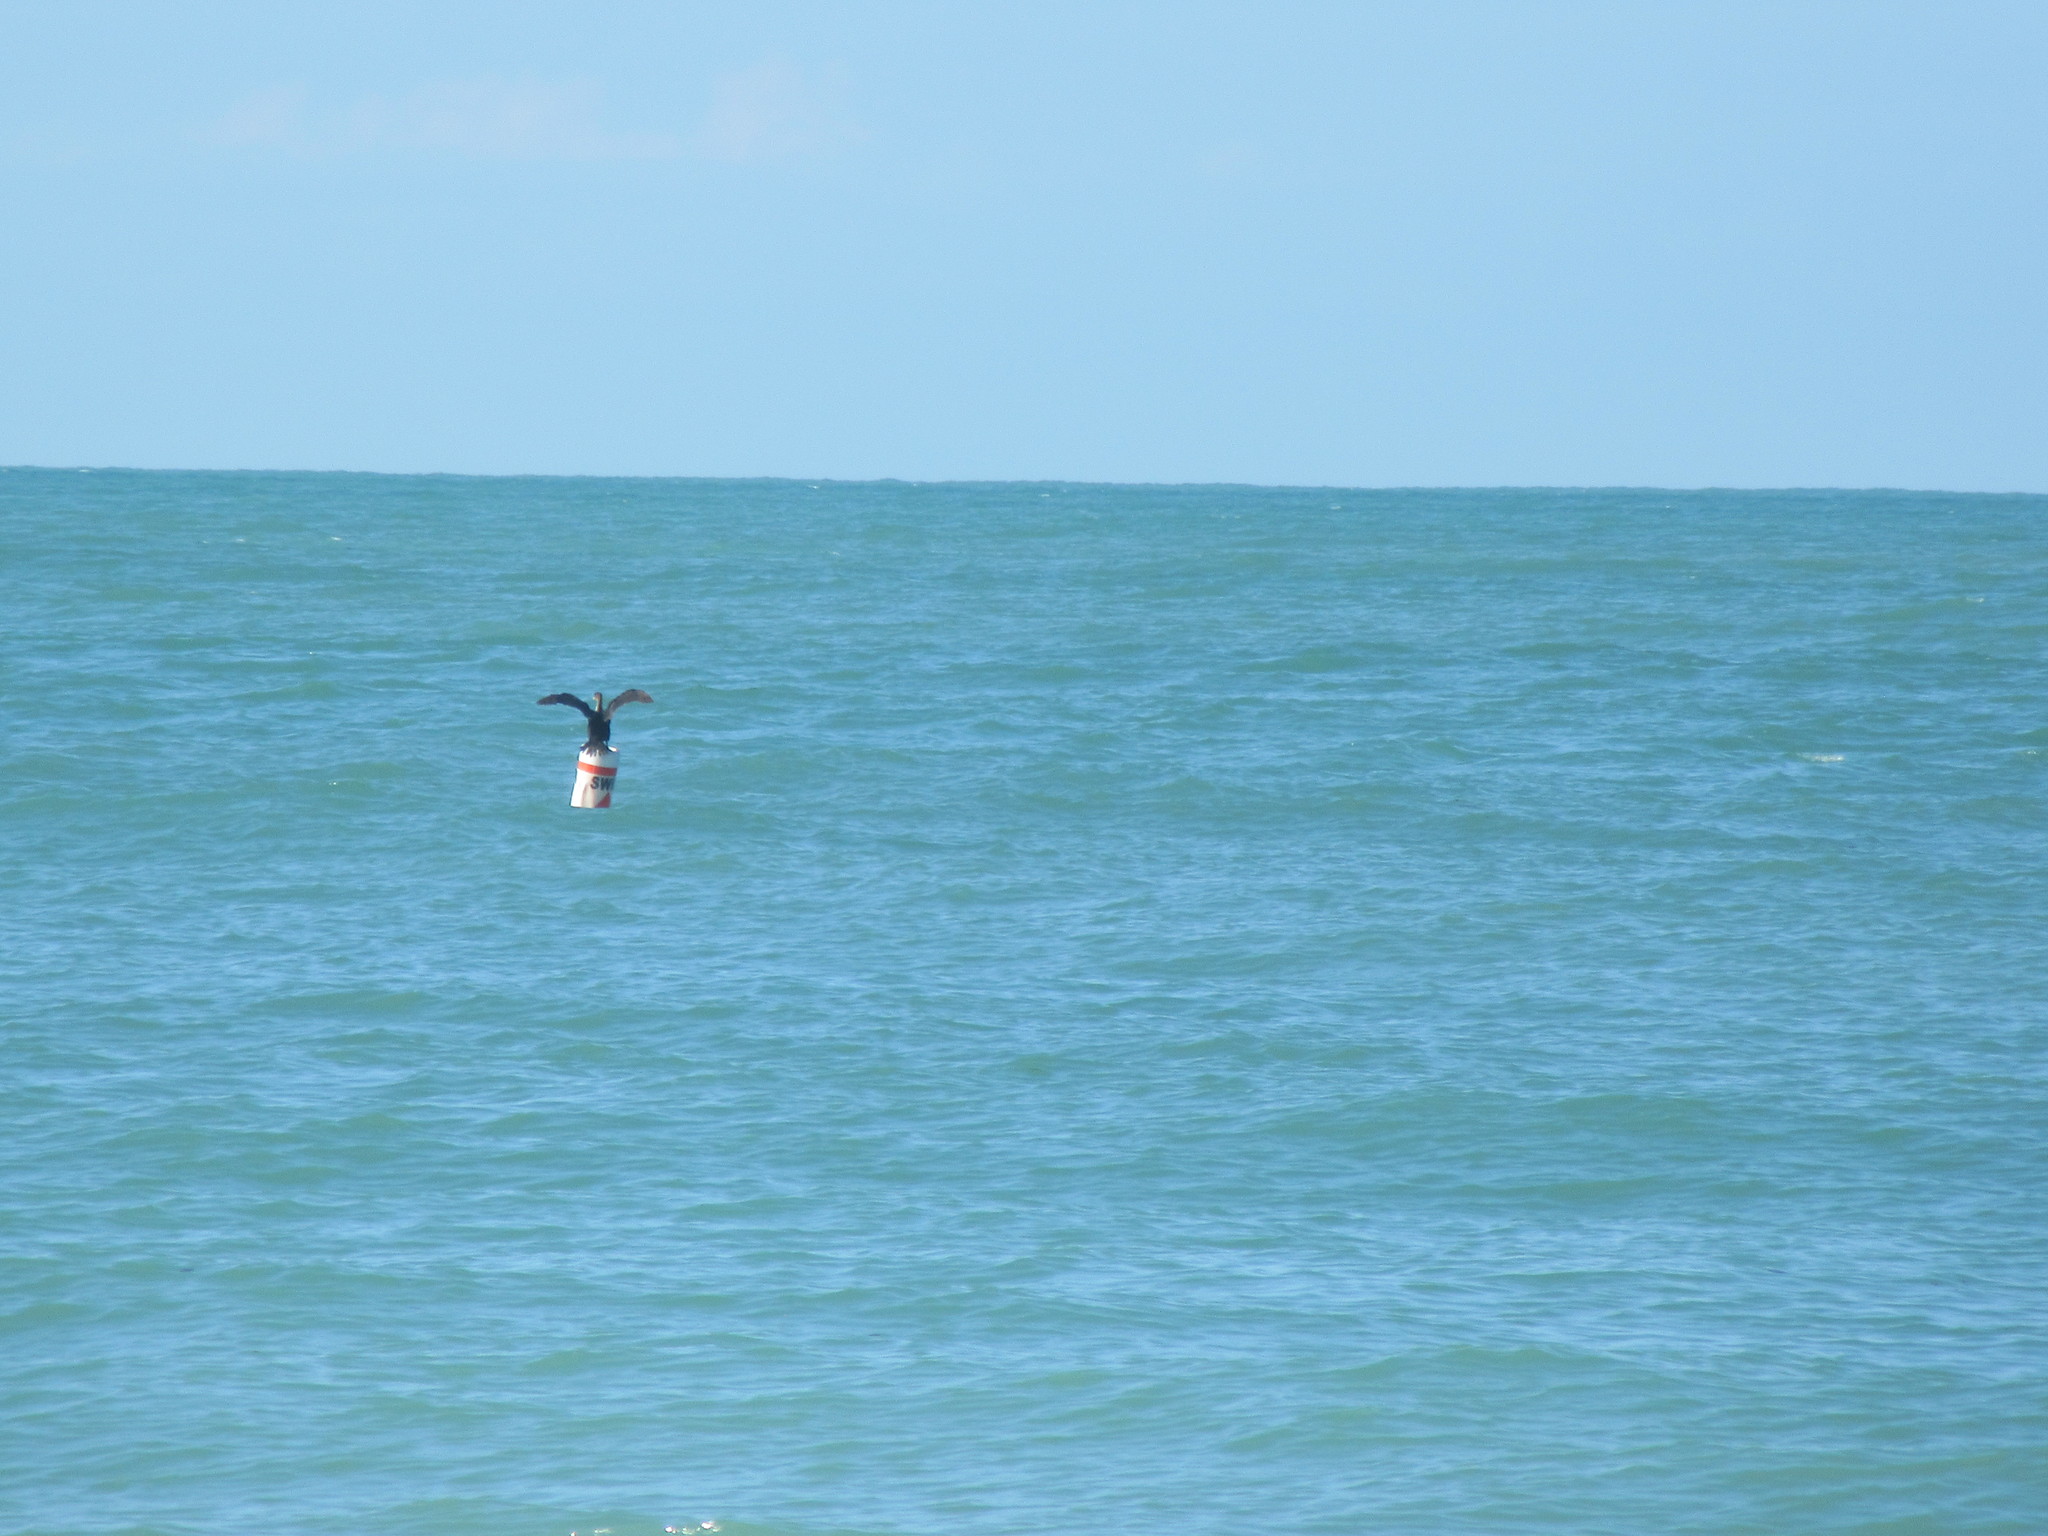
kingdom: Animalia
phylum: Chordata
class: Aves
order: Suliformes
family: Phalacrocoracidae
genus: Phalacrocorax
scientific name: Phalacrocorax auritus
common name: Double-crested cormorant
